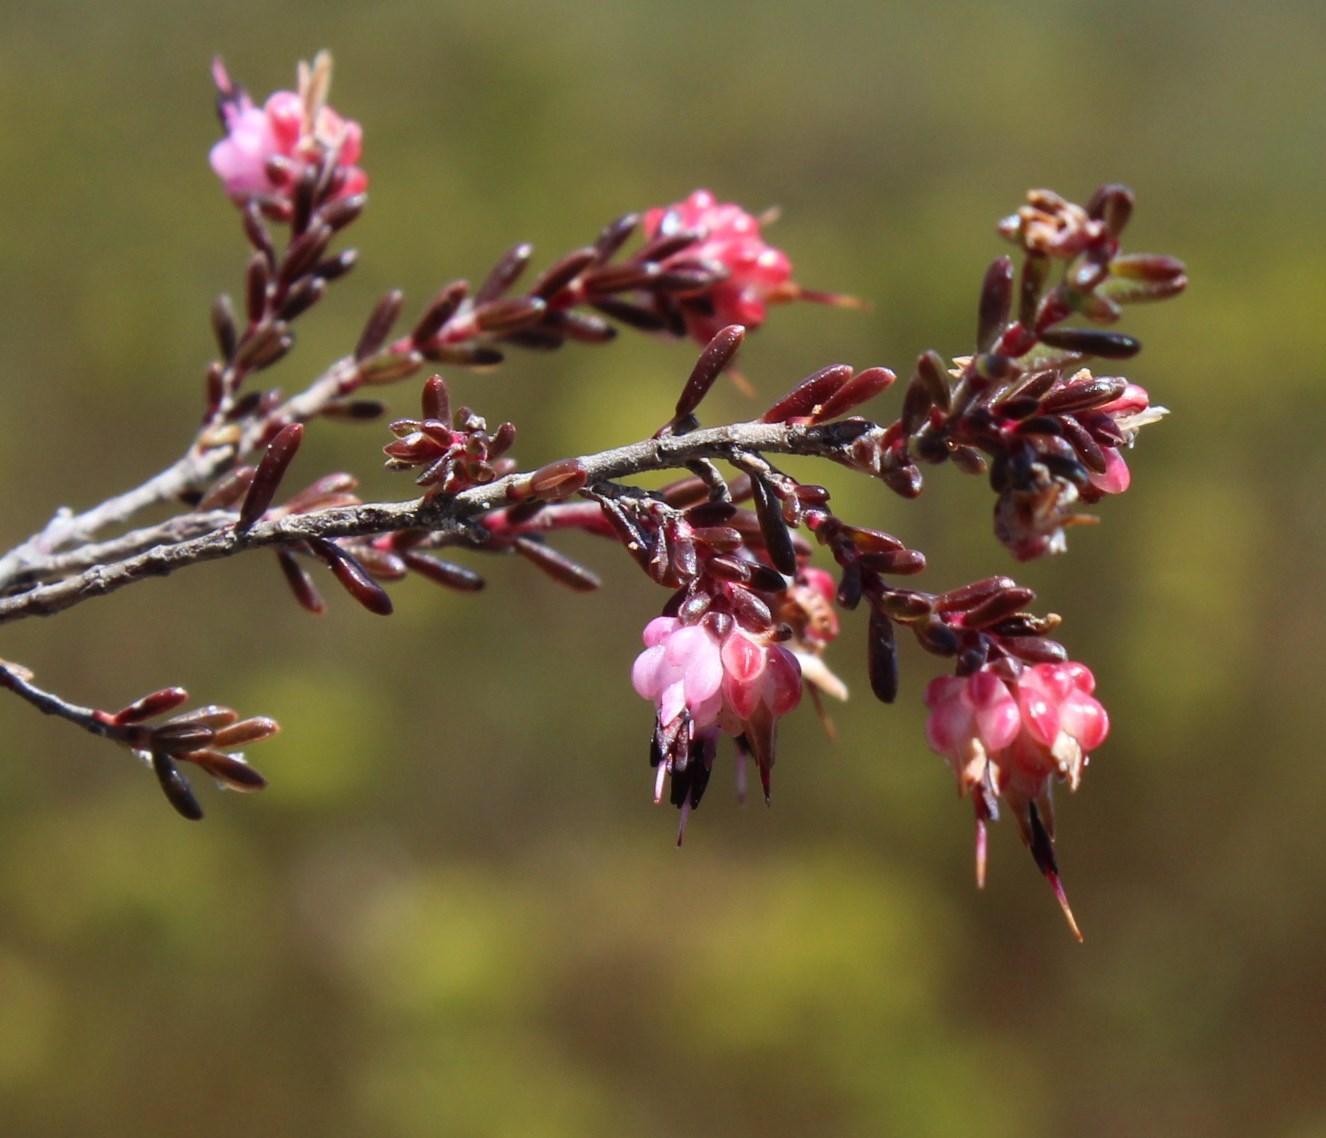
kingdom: Plantae
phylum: Tracheophyta
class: Magnoliopsida
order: Ericales
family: Ericaceae
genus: Erica
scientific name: Erica spumosa
